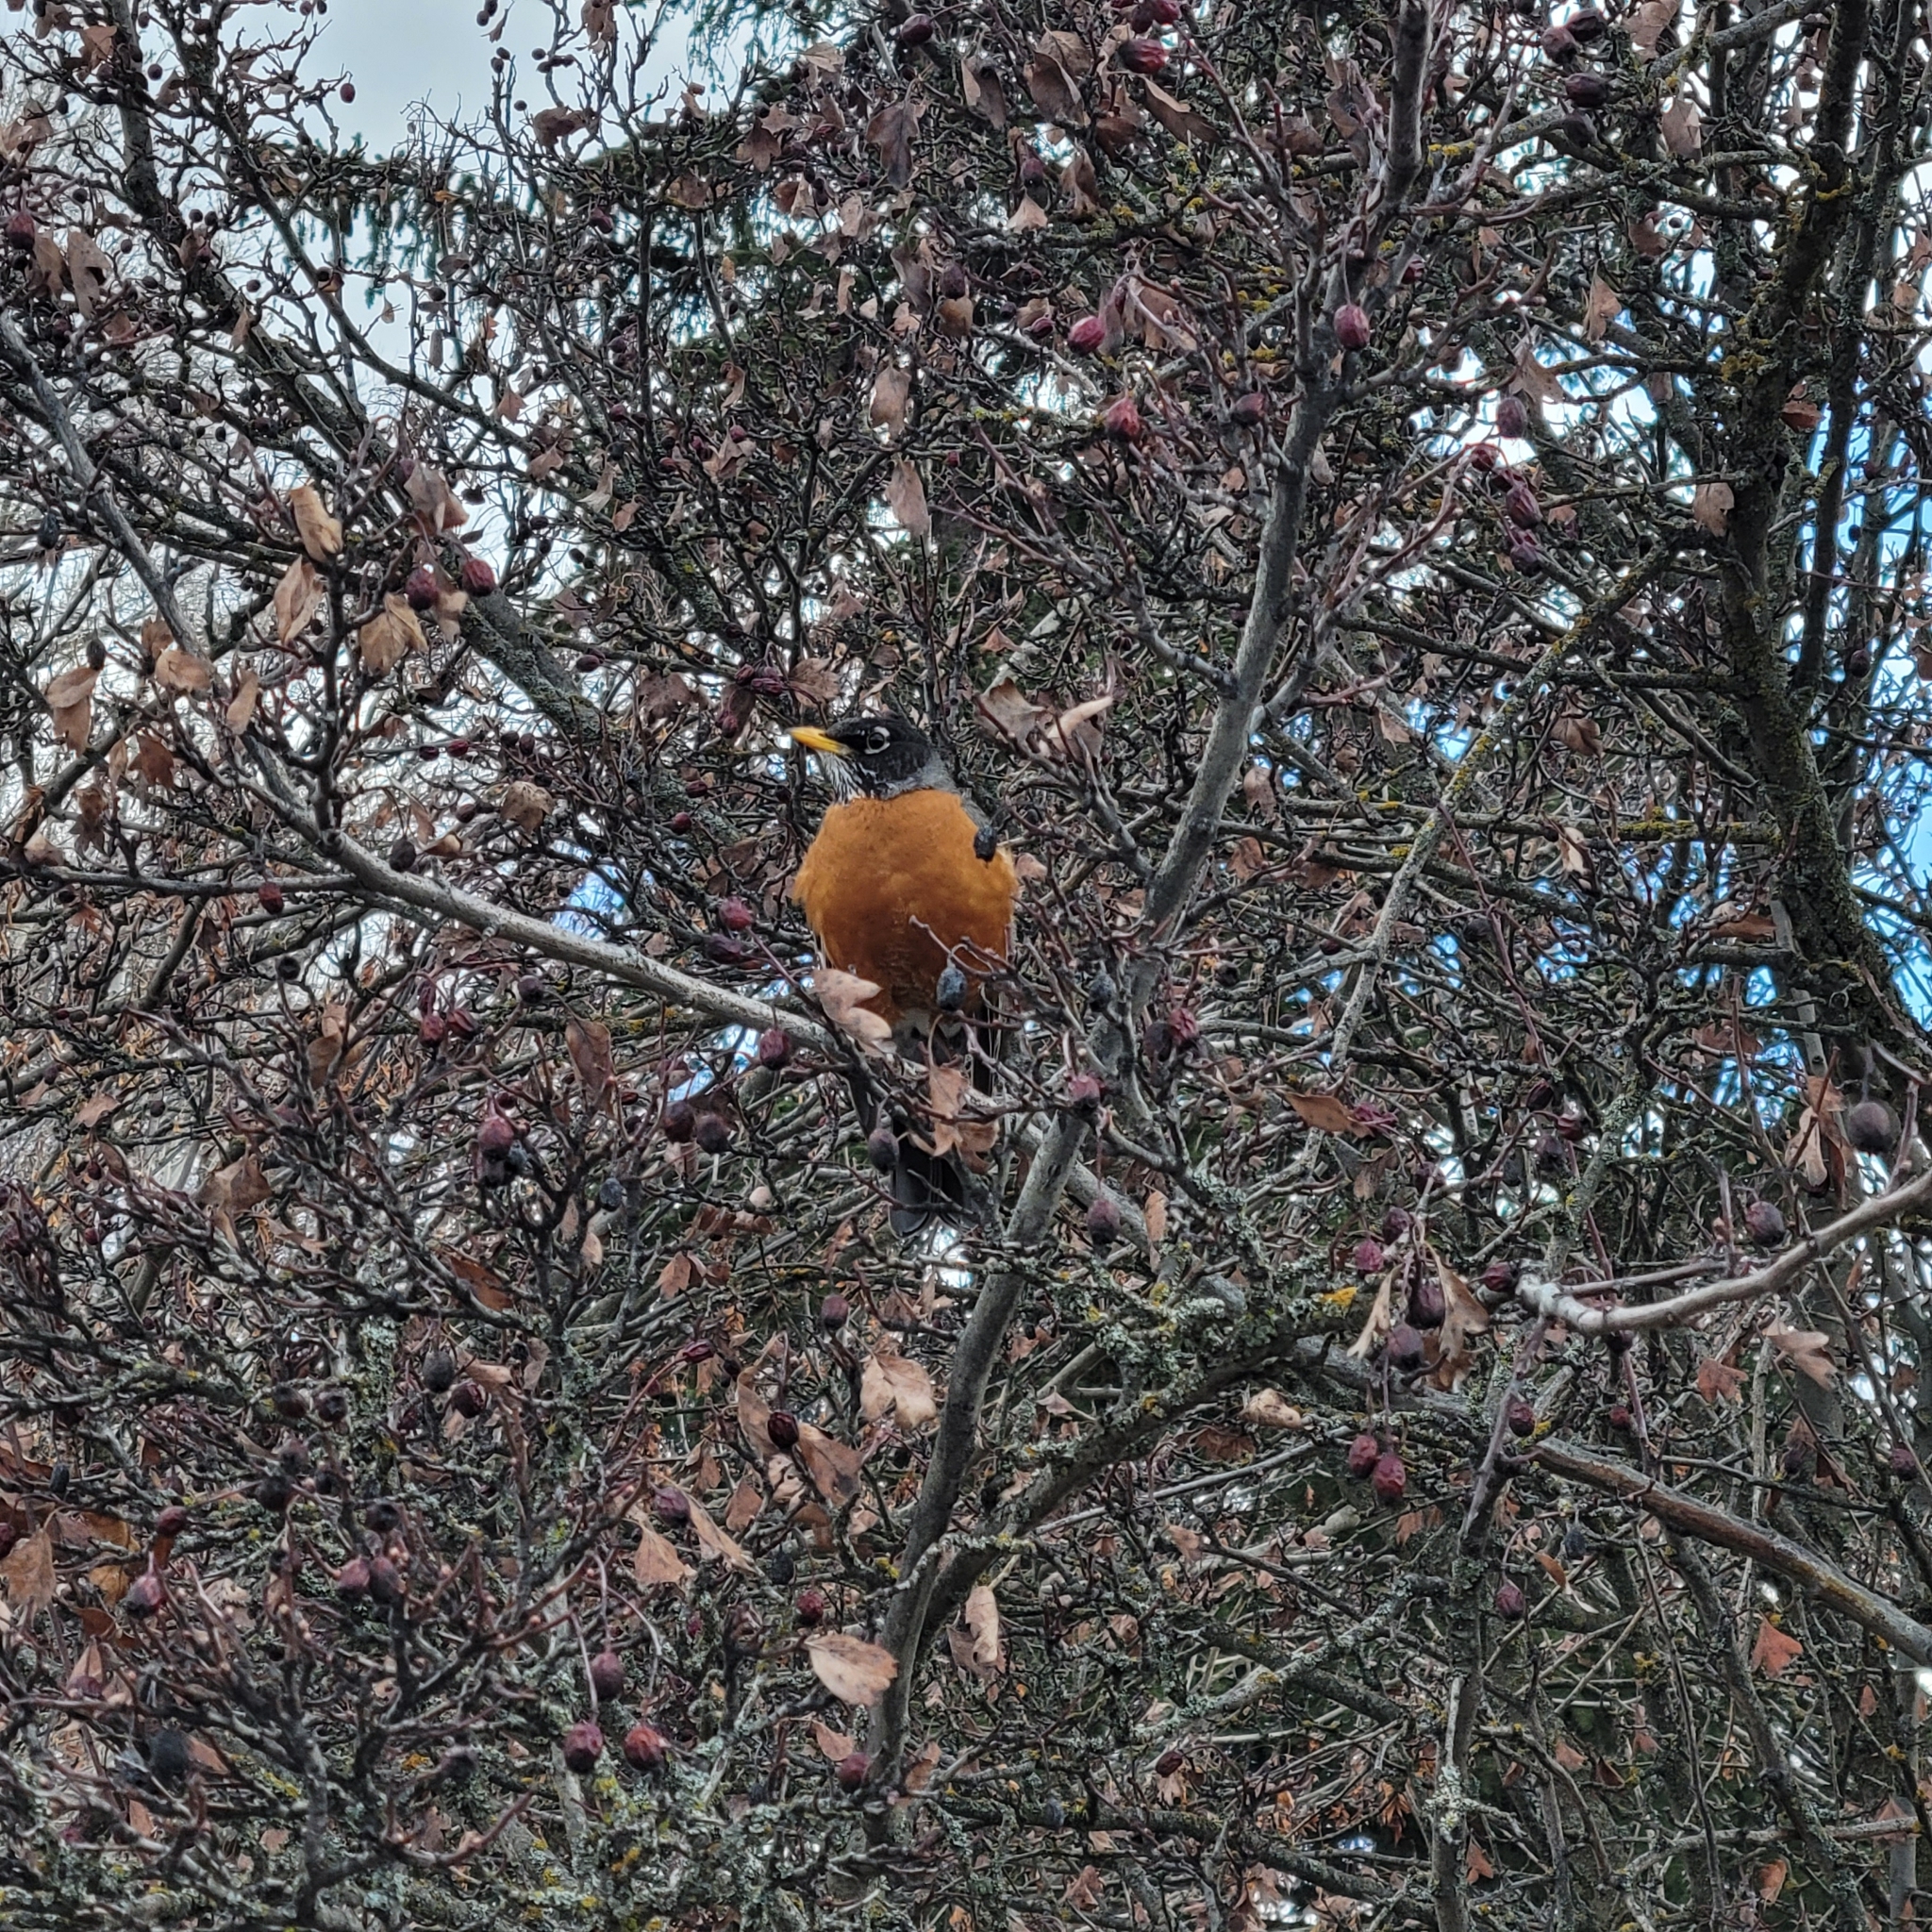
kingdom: Animalia
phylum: Chordata
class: Aves
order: Passeriformes
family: Turdidae
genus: Turdus
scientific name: Turdus migratorius
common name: American robin
